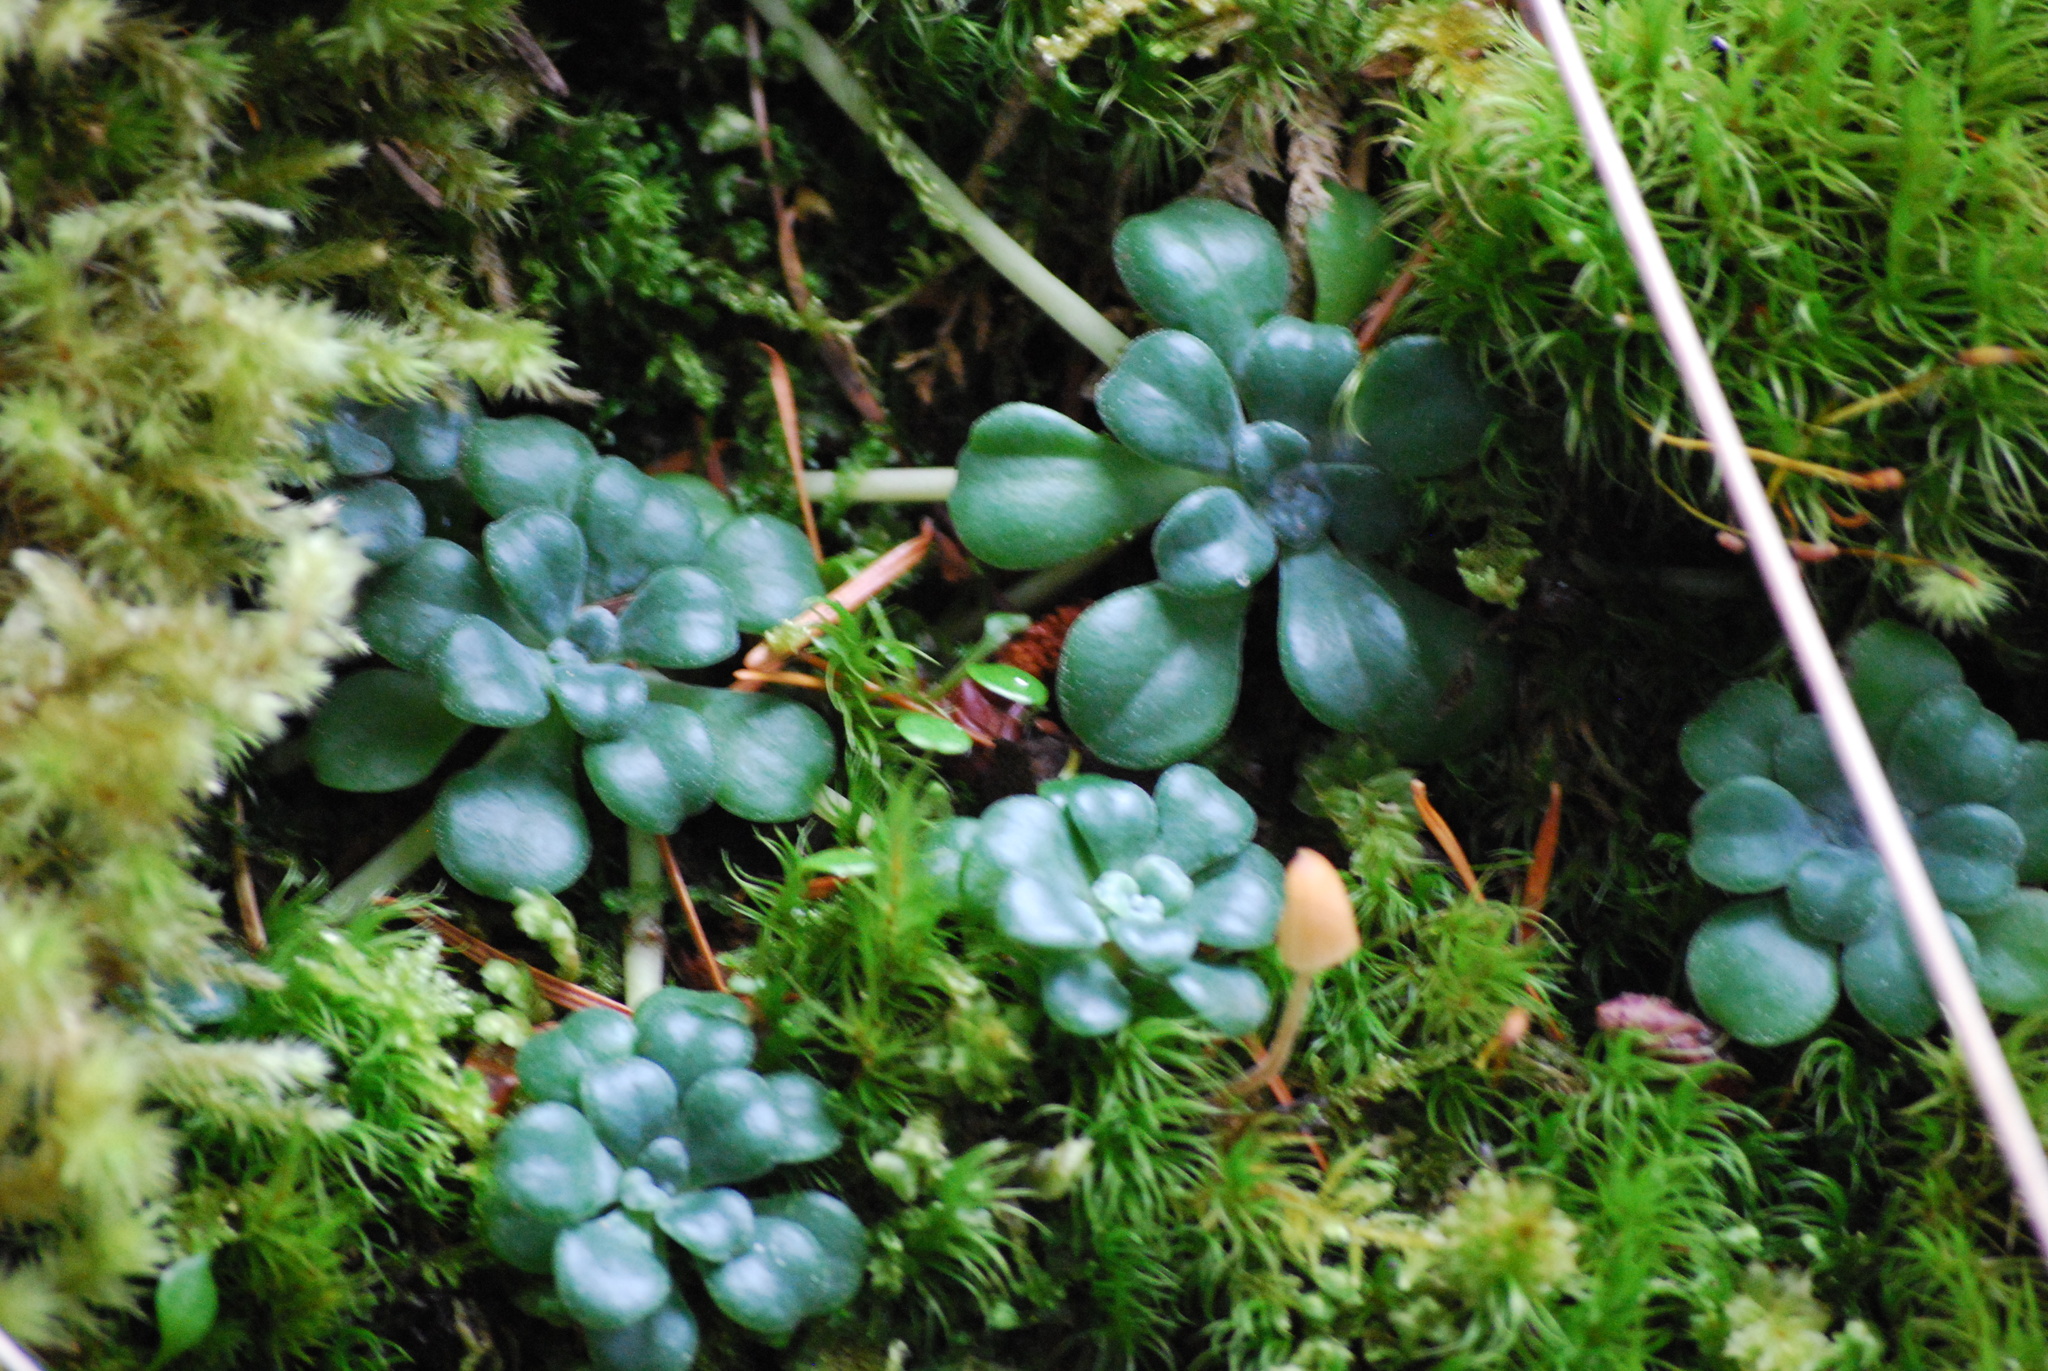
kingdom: Plantae
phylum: Tracheophyta
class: Magnoliopsida
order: Saxifragales
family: Crassulaceae
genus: Sedum
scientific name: Sedum spathulifolium
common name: Colorado stonecrop
